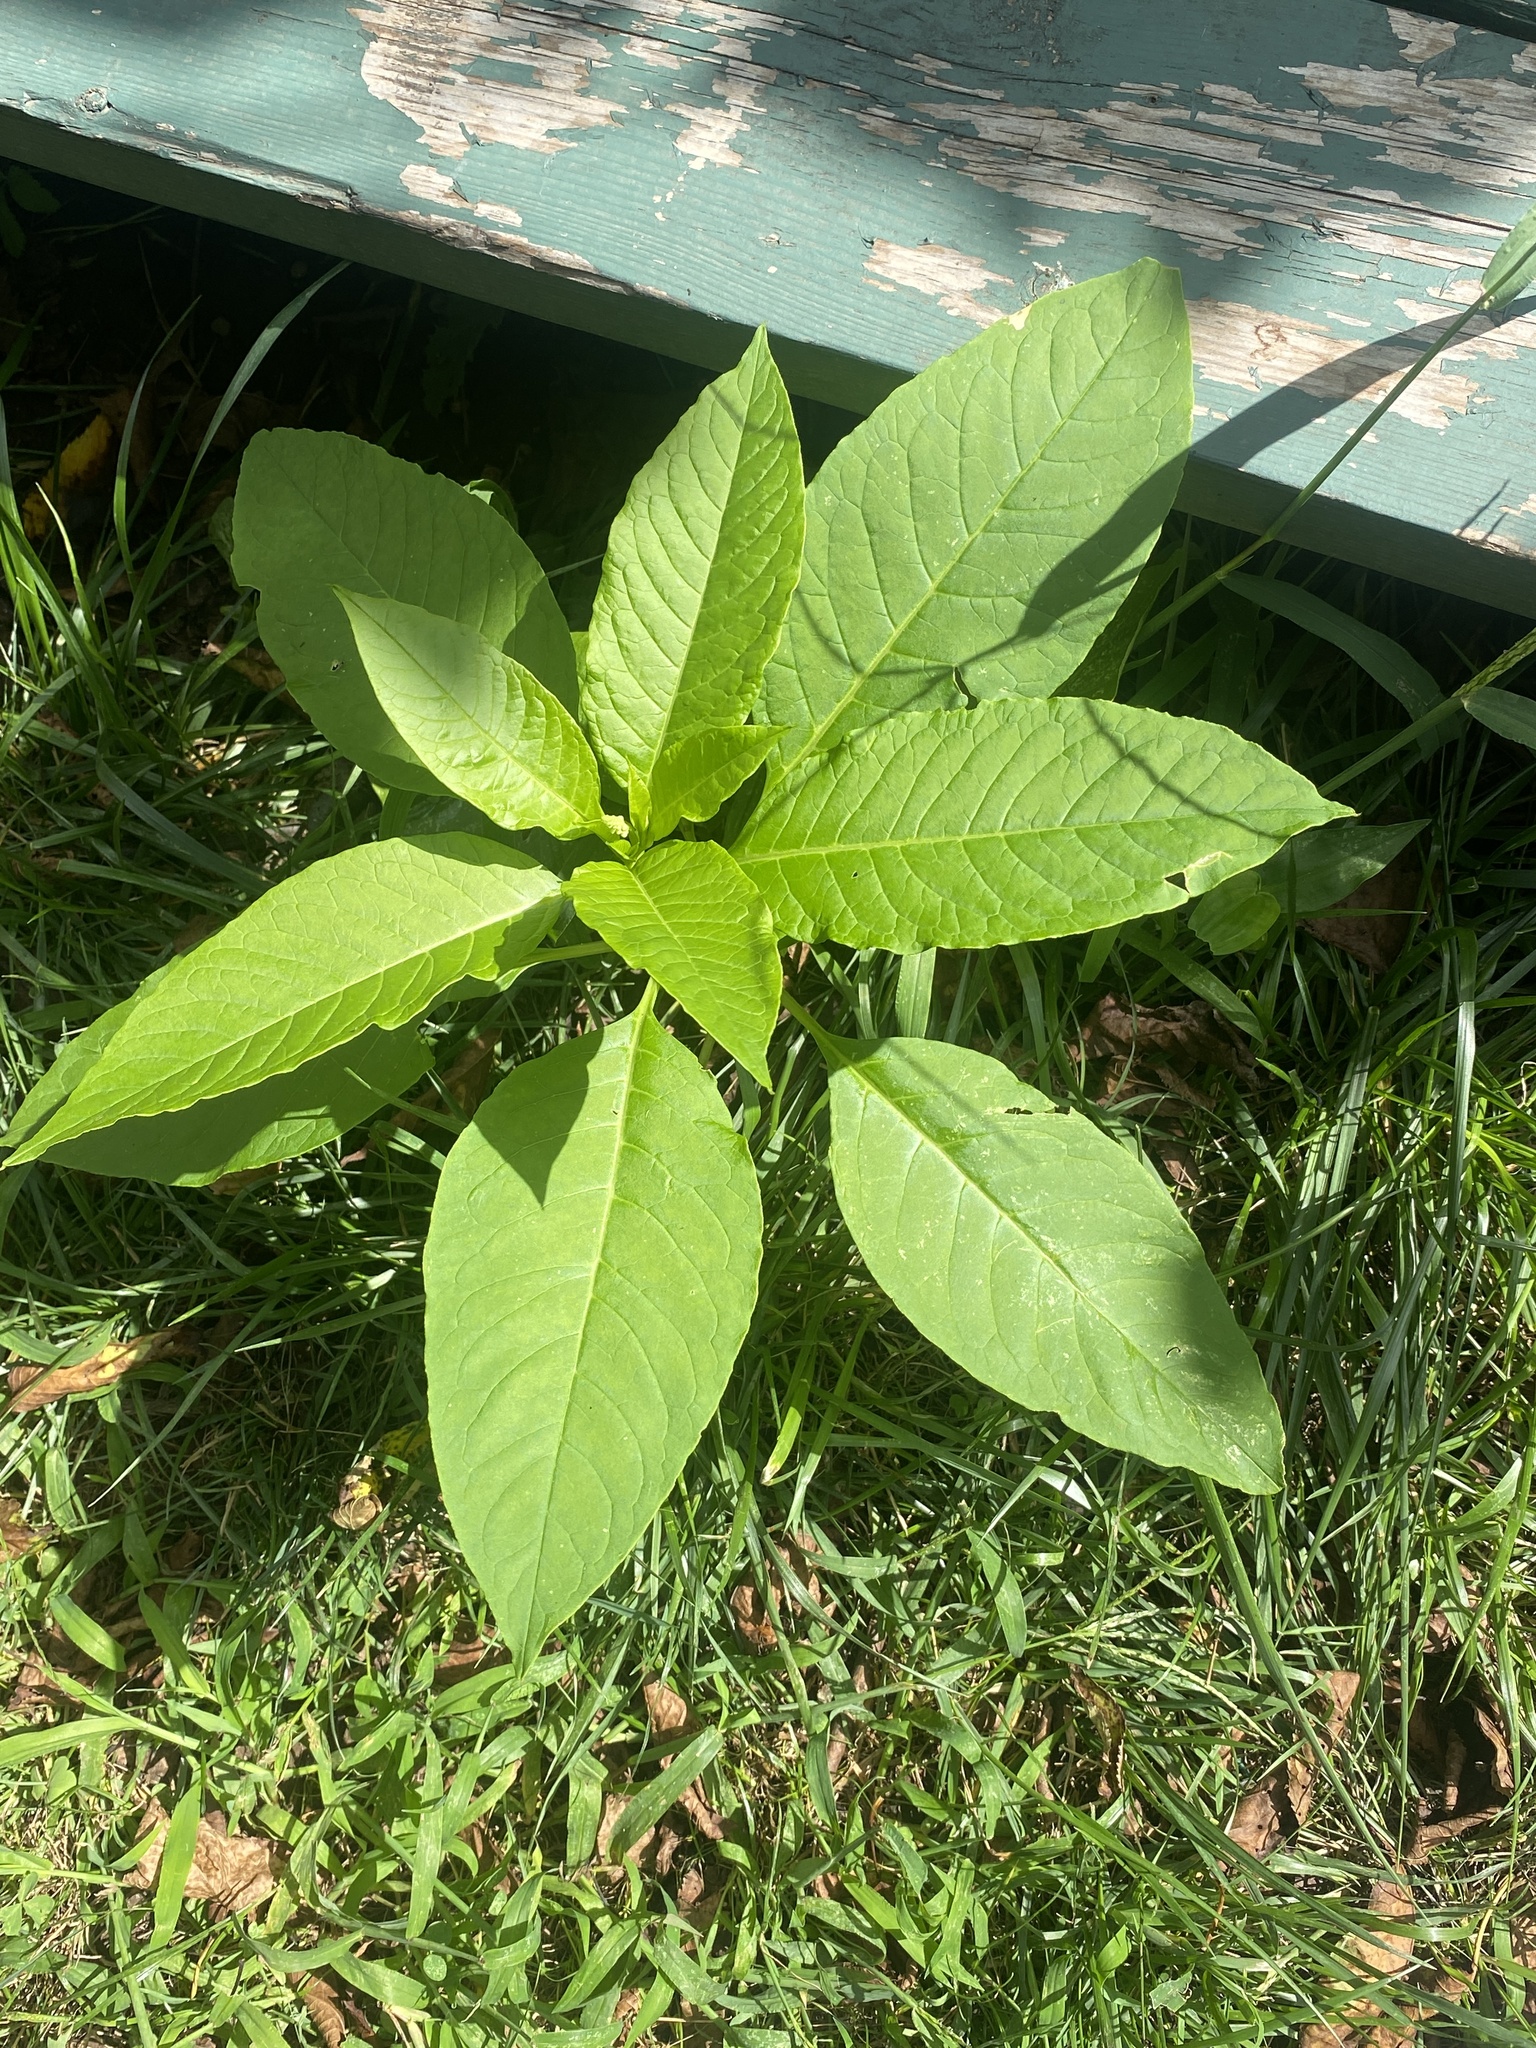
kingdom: Plantae
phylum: Tracheophyta
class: Magnoliopsida
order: Caryophyllales
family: Phytolaccaceae
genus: Phytolacca
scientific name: Phytolacca americana
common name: American pokeweed
